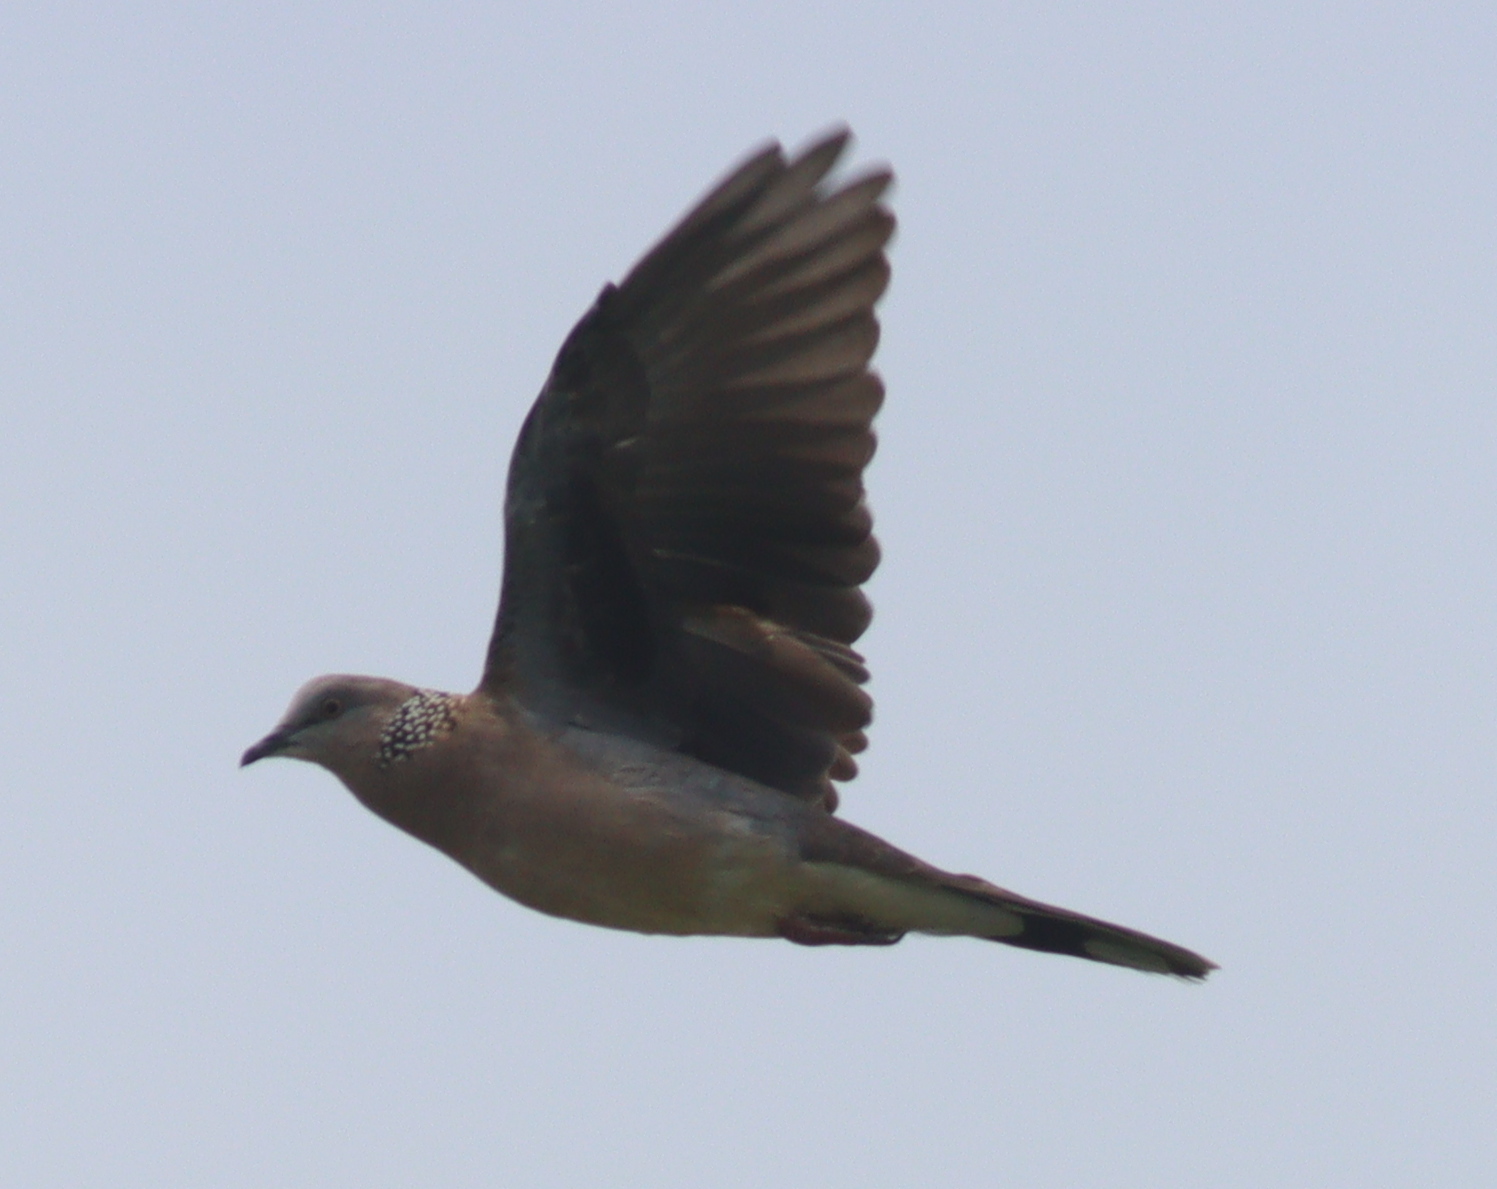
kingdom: Animalia
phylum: Chordata
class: Aves
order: Columbiformes
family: Columbidae
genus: Spilopelia
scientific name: Spilopelia chinensis
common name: Spotted dove
